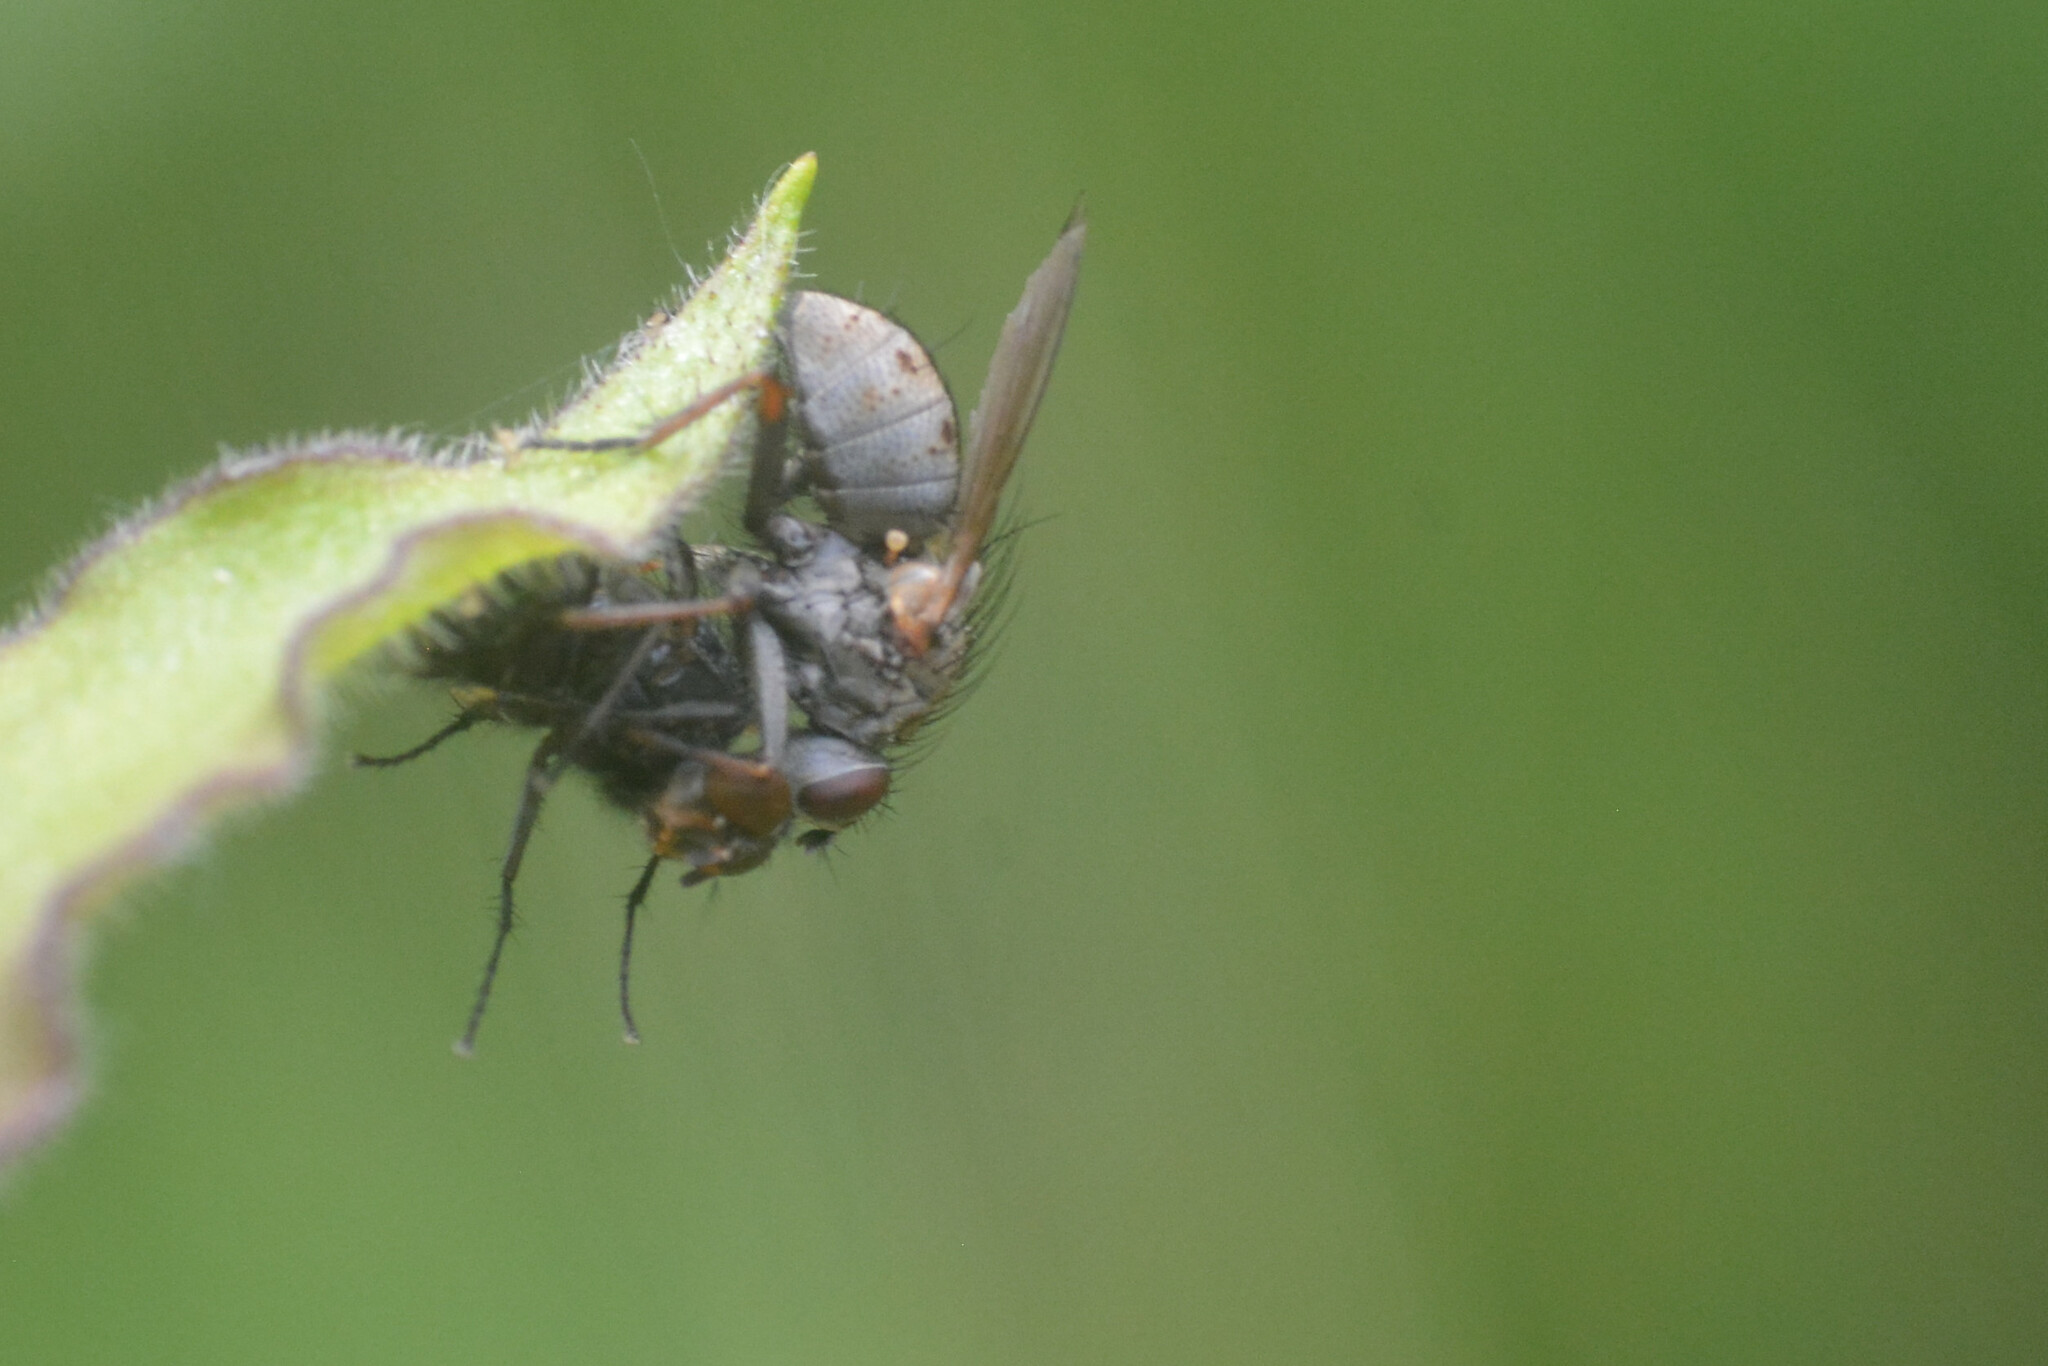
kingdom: Animalia
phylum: Arthropoda
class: Insecta
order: Diptera
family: Muscidae
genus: Coenosia
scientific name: Coenosia tigrina
